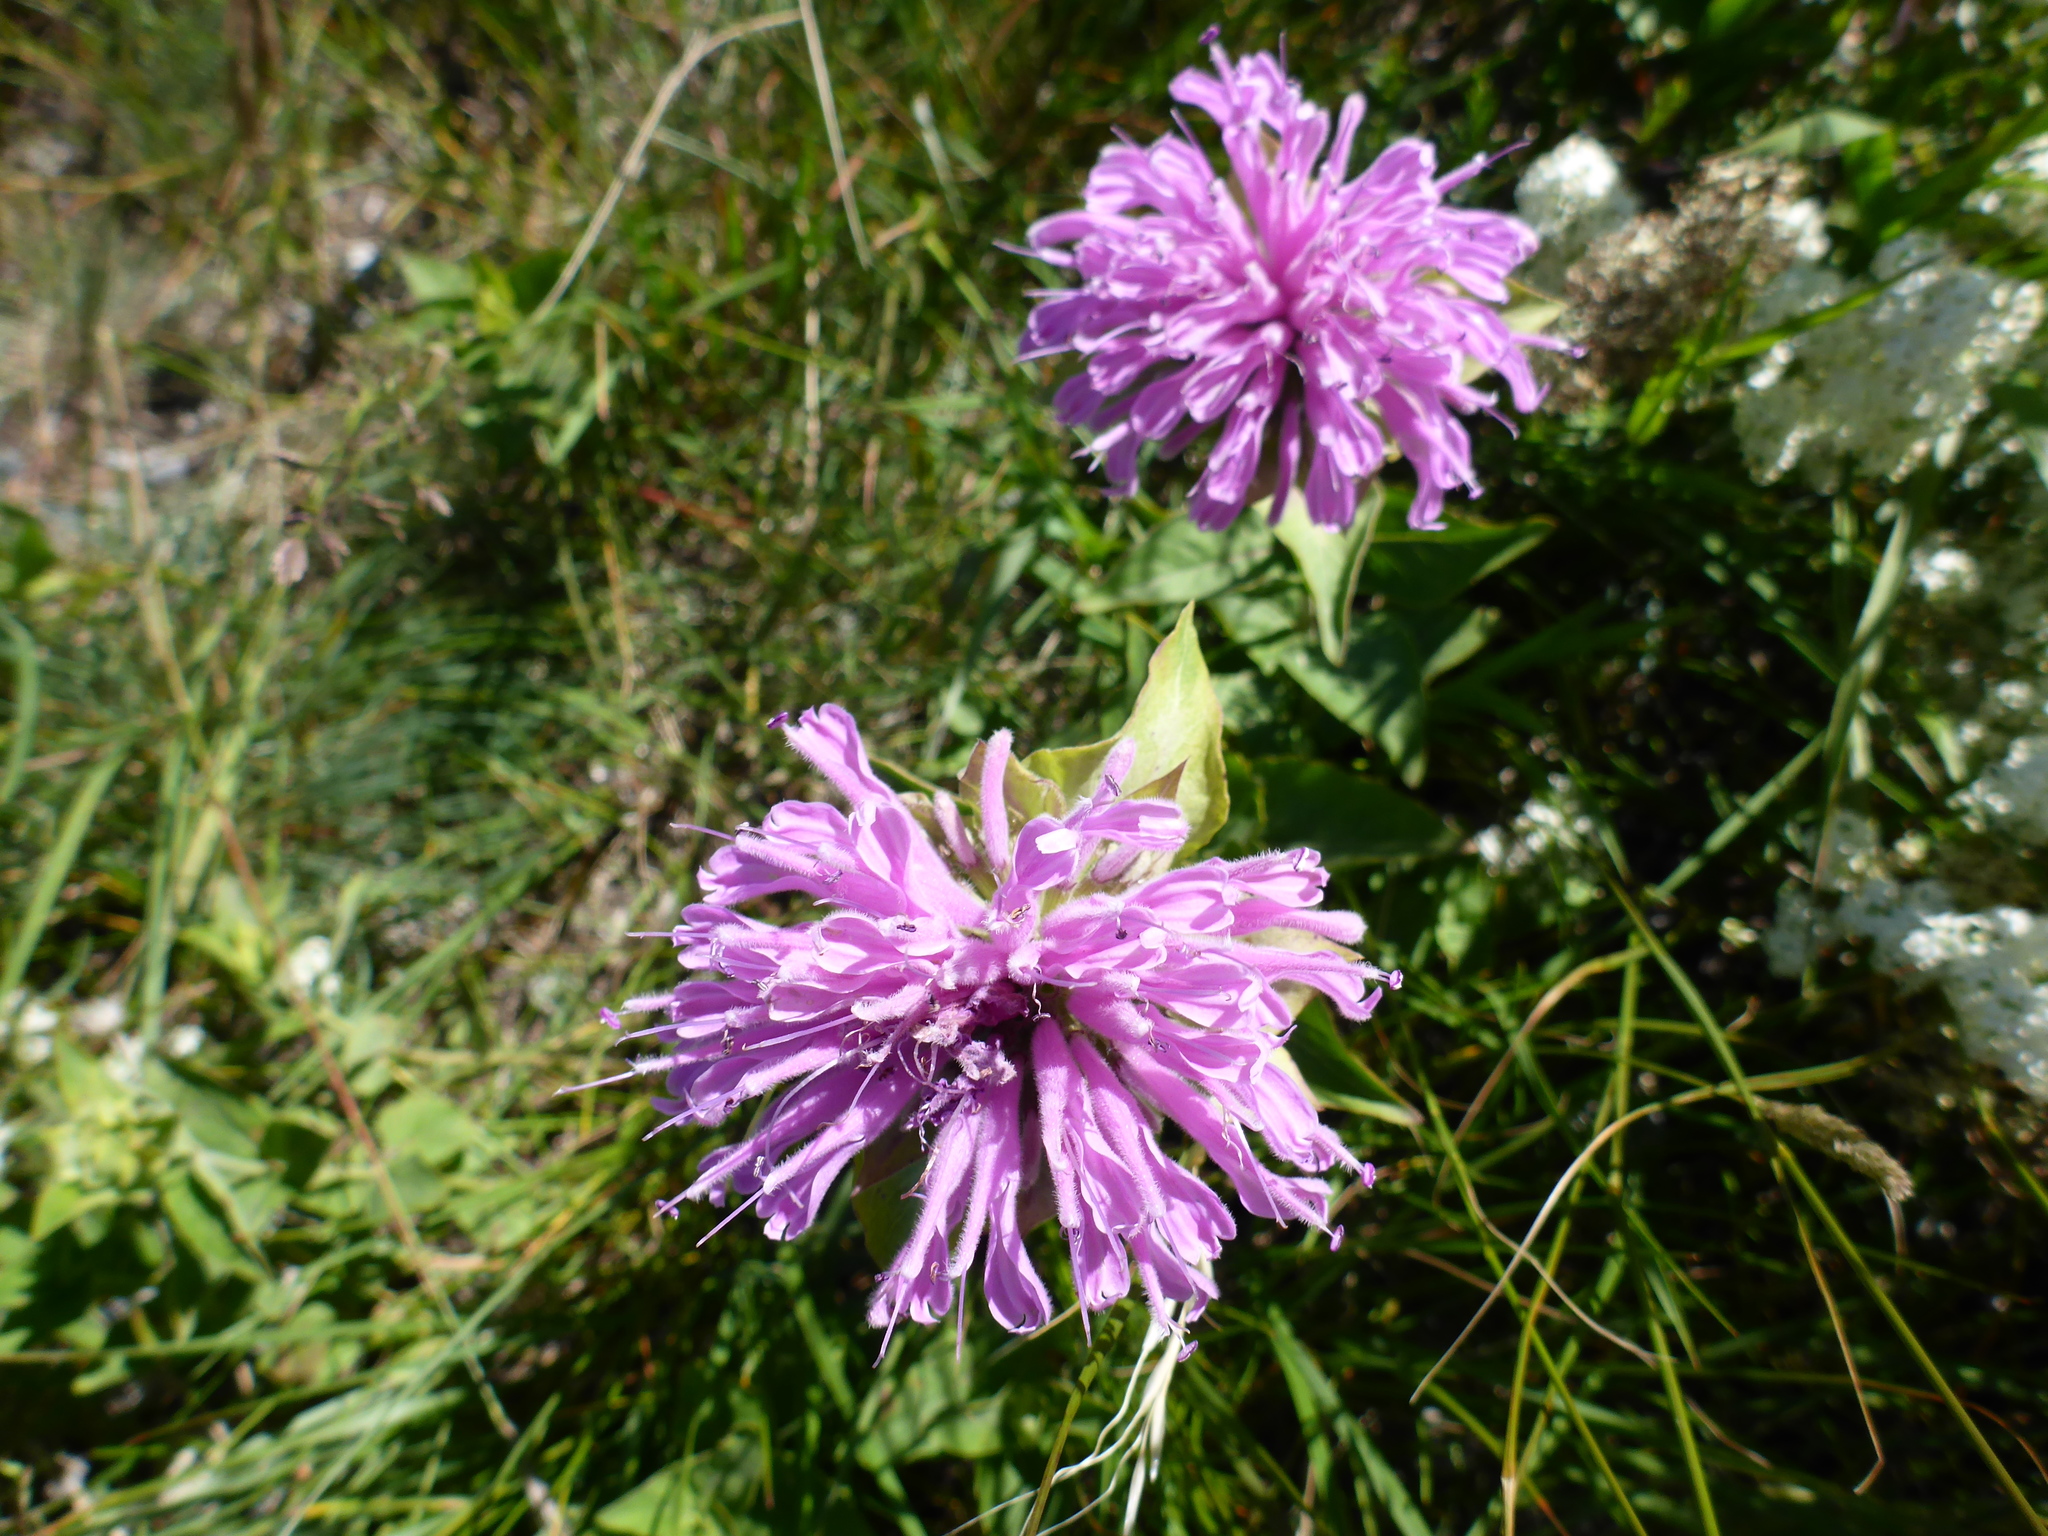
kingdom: Plantae
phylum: Tracheophyta
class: Magnoliopsida
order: Lamiales
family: Lamiaceae
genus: Monarda
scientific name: Monarda fistulosa
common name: Purple beebalm
